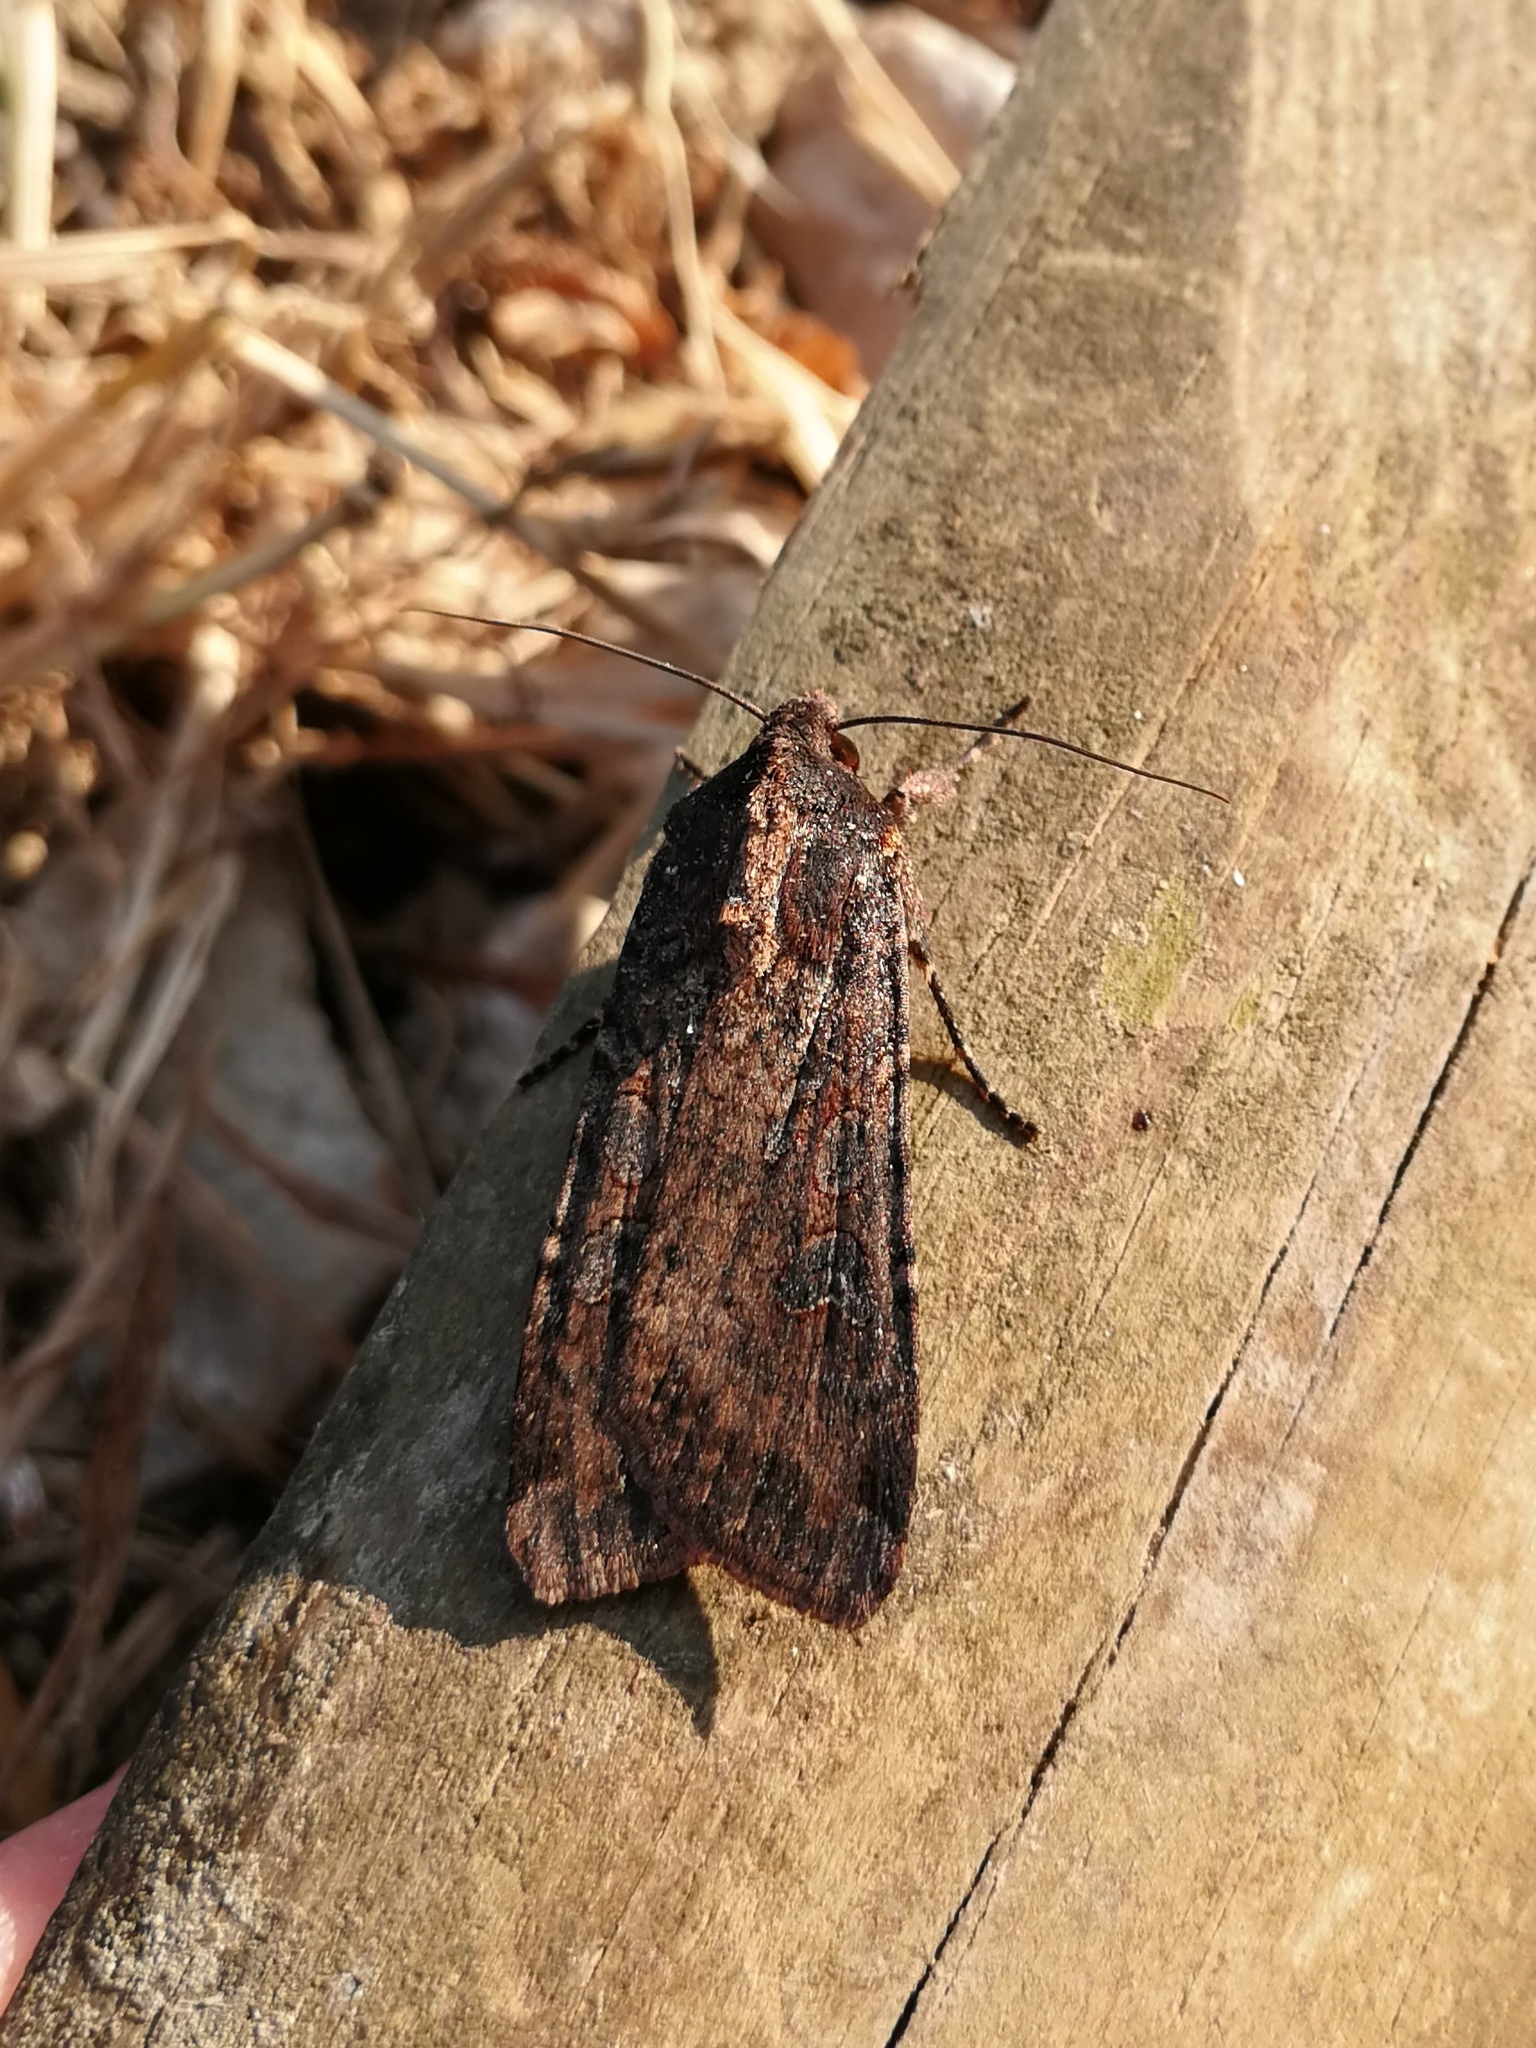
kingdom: Animalia
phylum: Arthropoda
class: Insecta
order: Lepidoptera
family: Noctuidae
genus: Peridroma
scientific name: Peridroma saucia
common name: Pearly underwing
